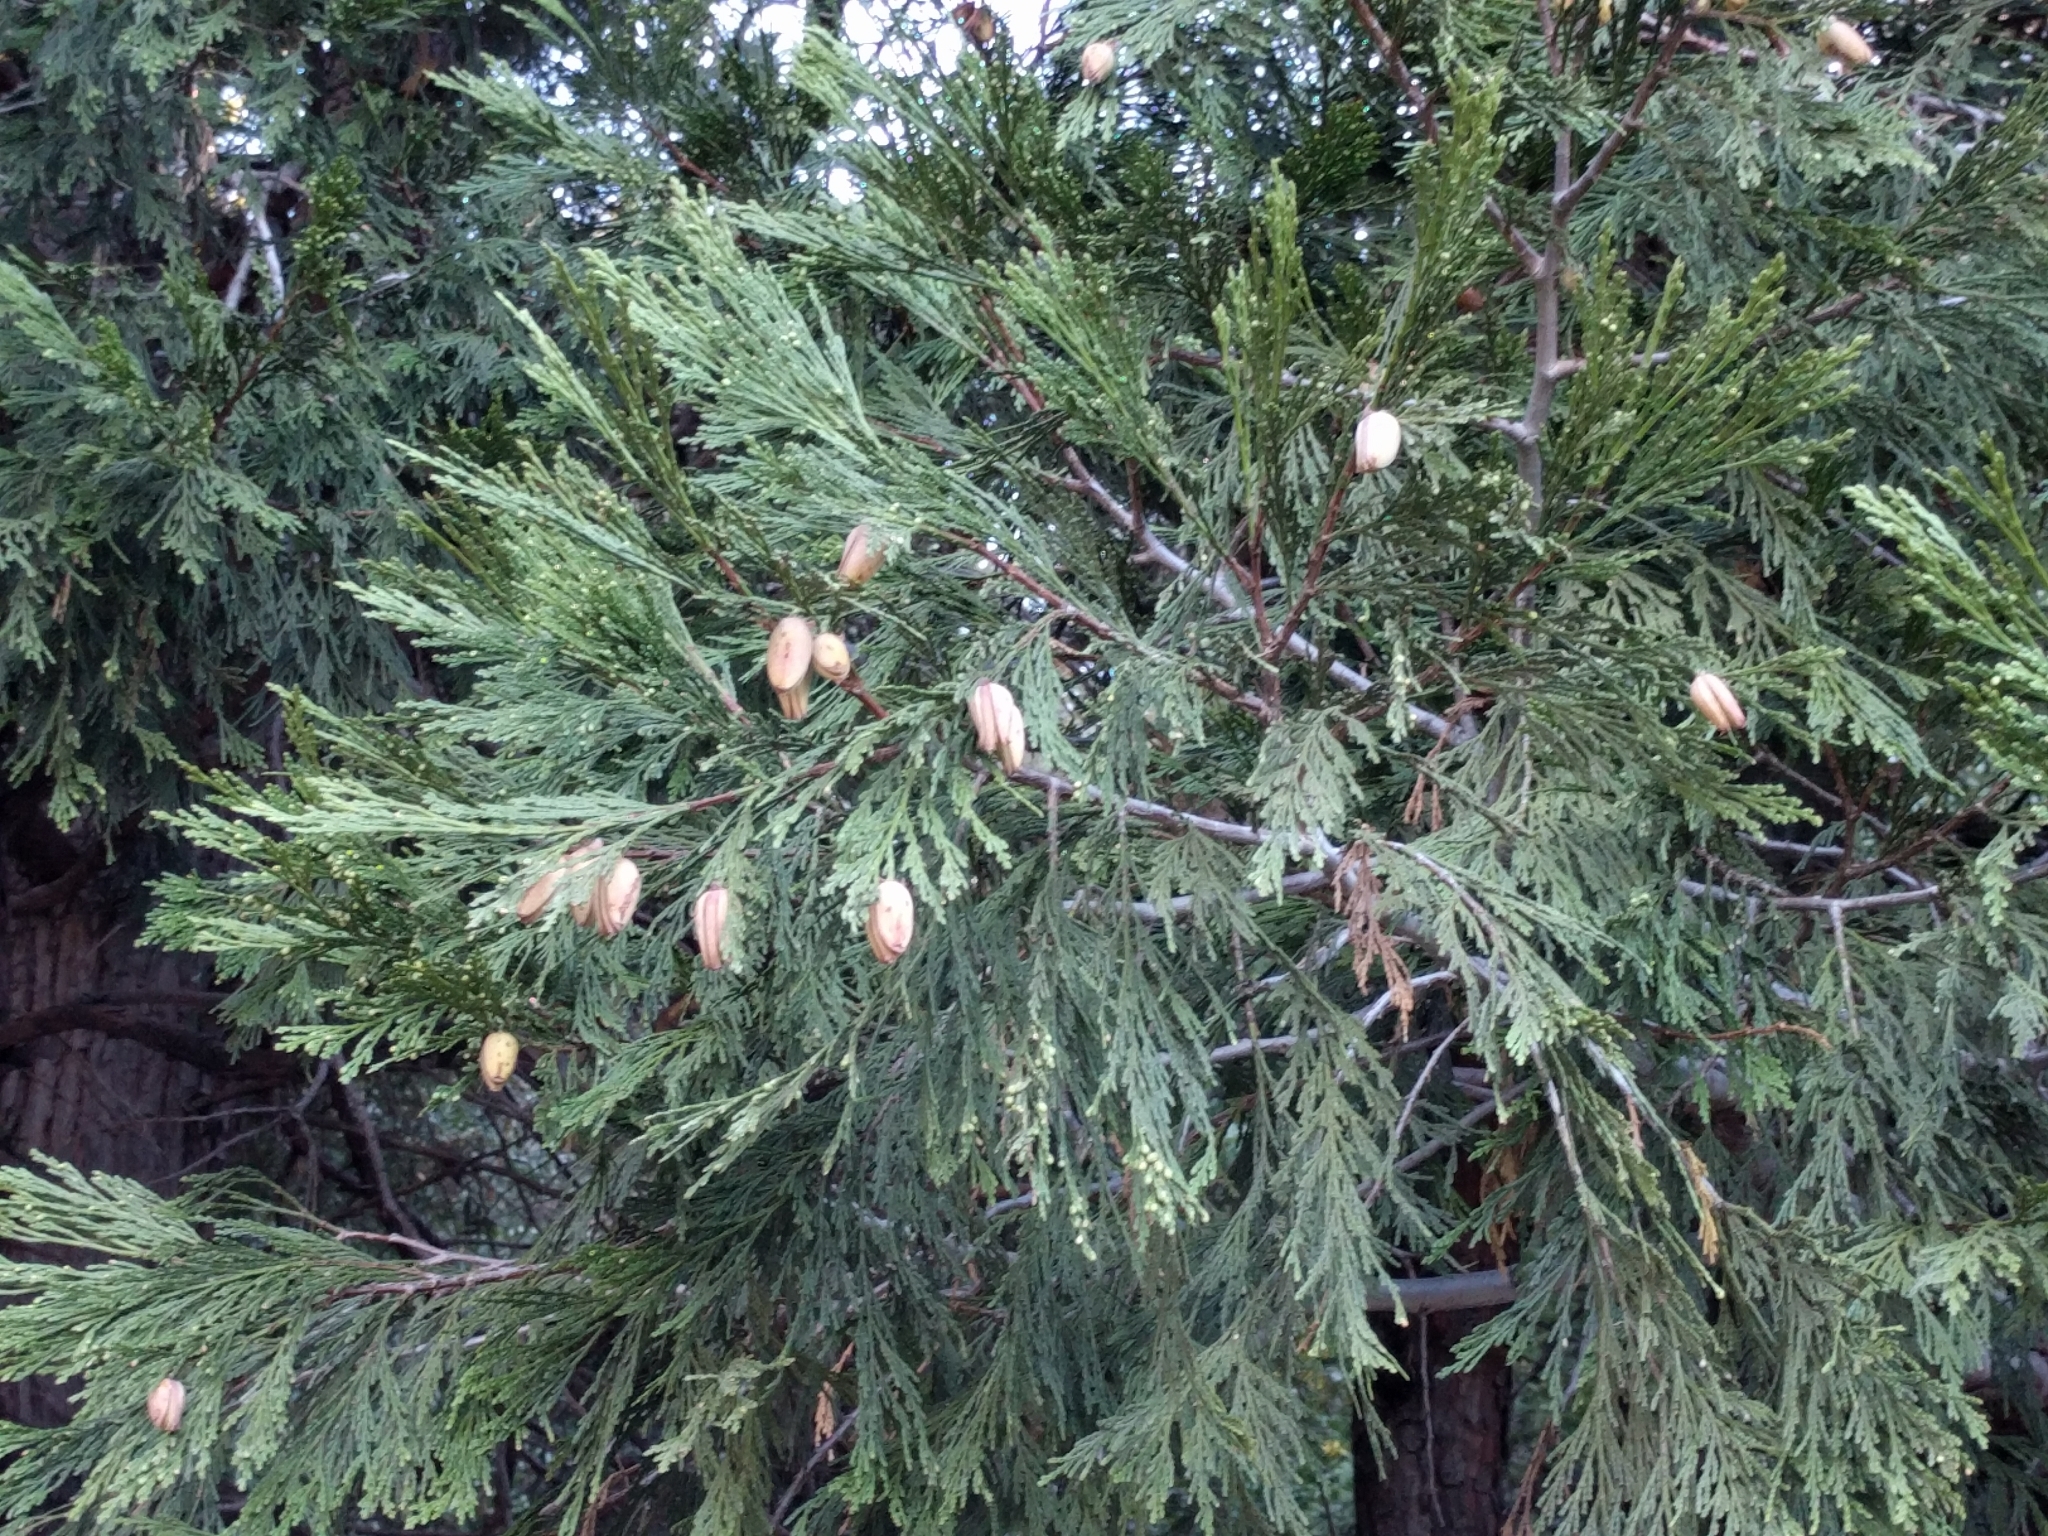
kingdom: Plantae
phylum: Tracheophyta
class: Pinopsida
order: Pinales
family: Cupressaceae
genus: Calocedrus
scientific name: Calocedrus decurrens
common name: Californian incense-cedar
